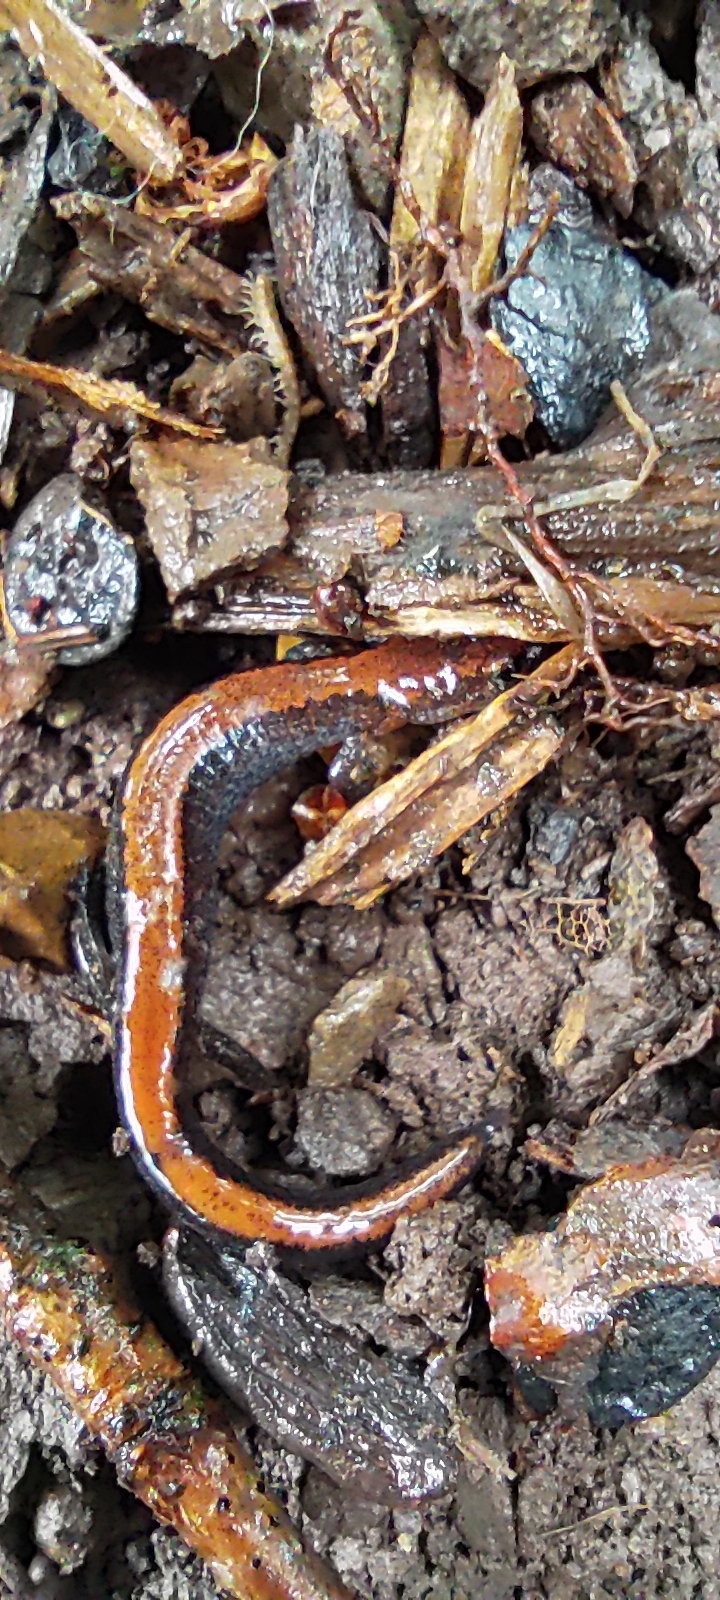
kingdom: Animalia
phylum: Chordata
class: Amphibia
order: Caudata
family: Plethodontidae
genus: Plethodon
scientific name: Plethodon cinereus
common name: Redback salamander
